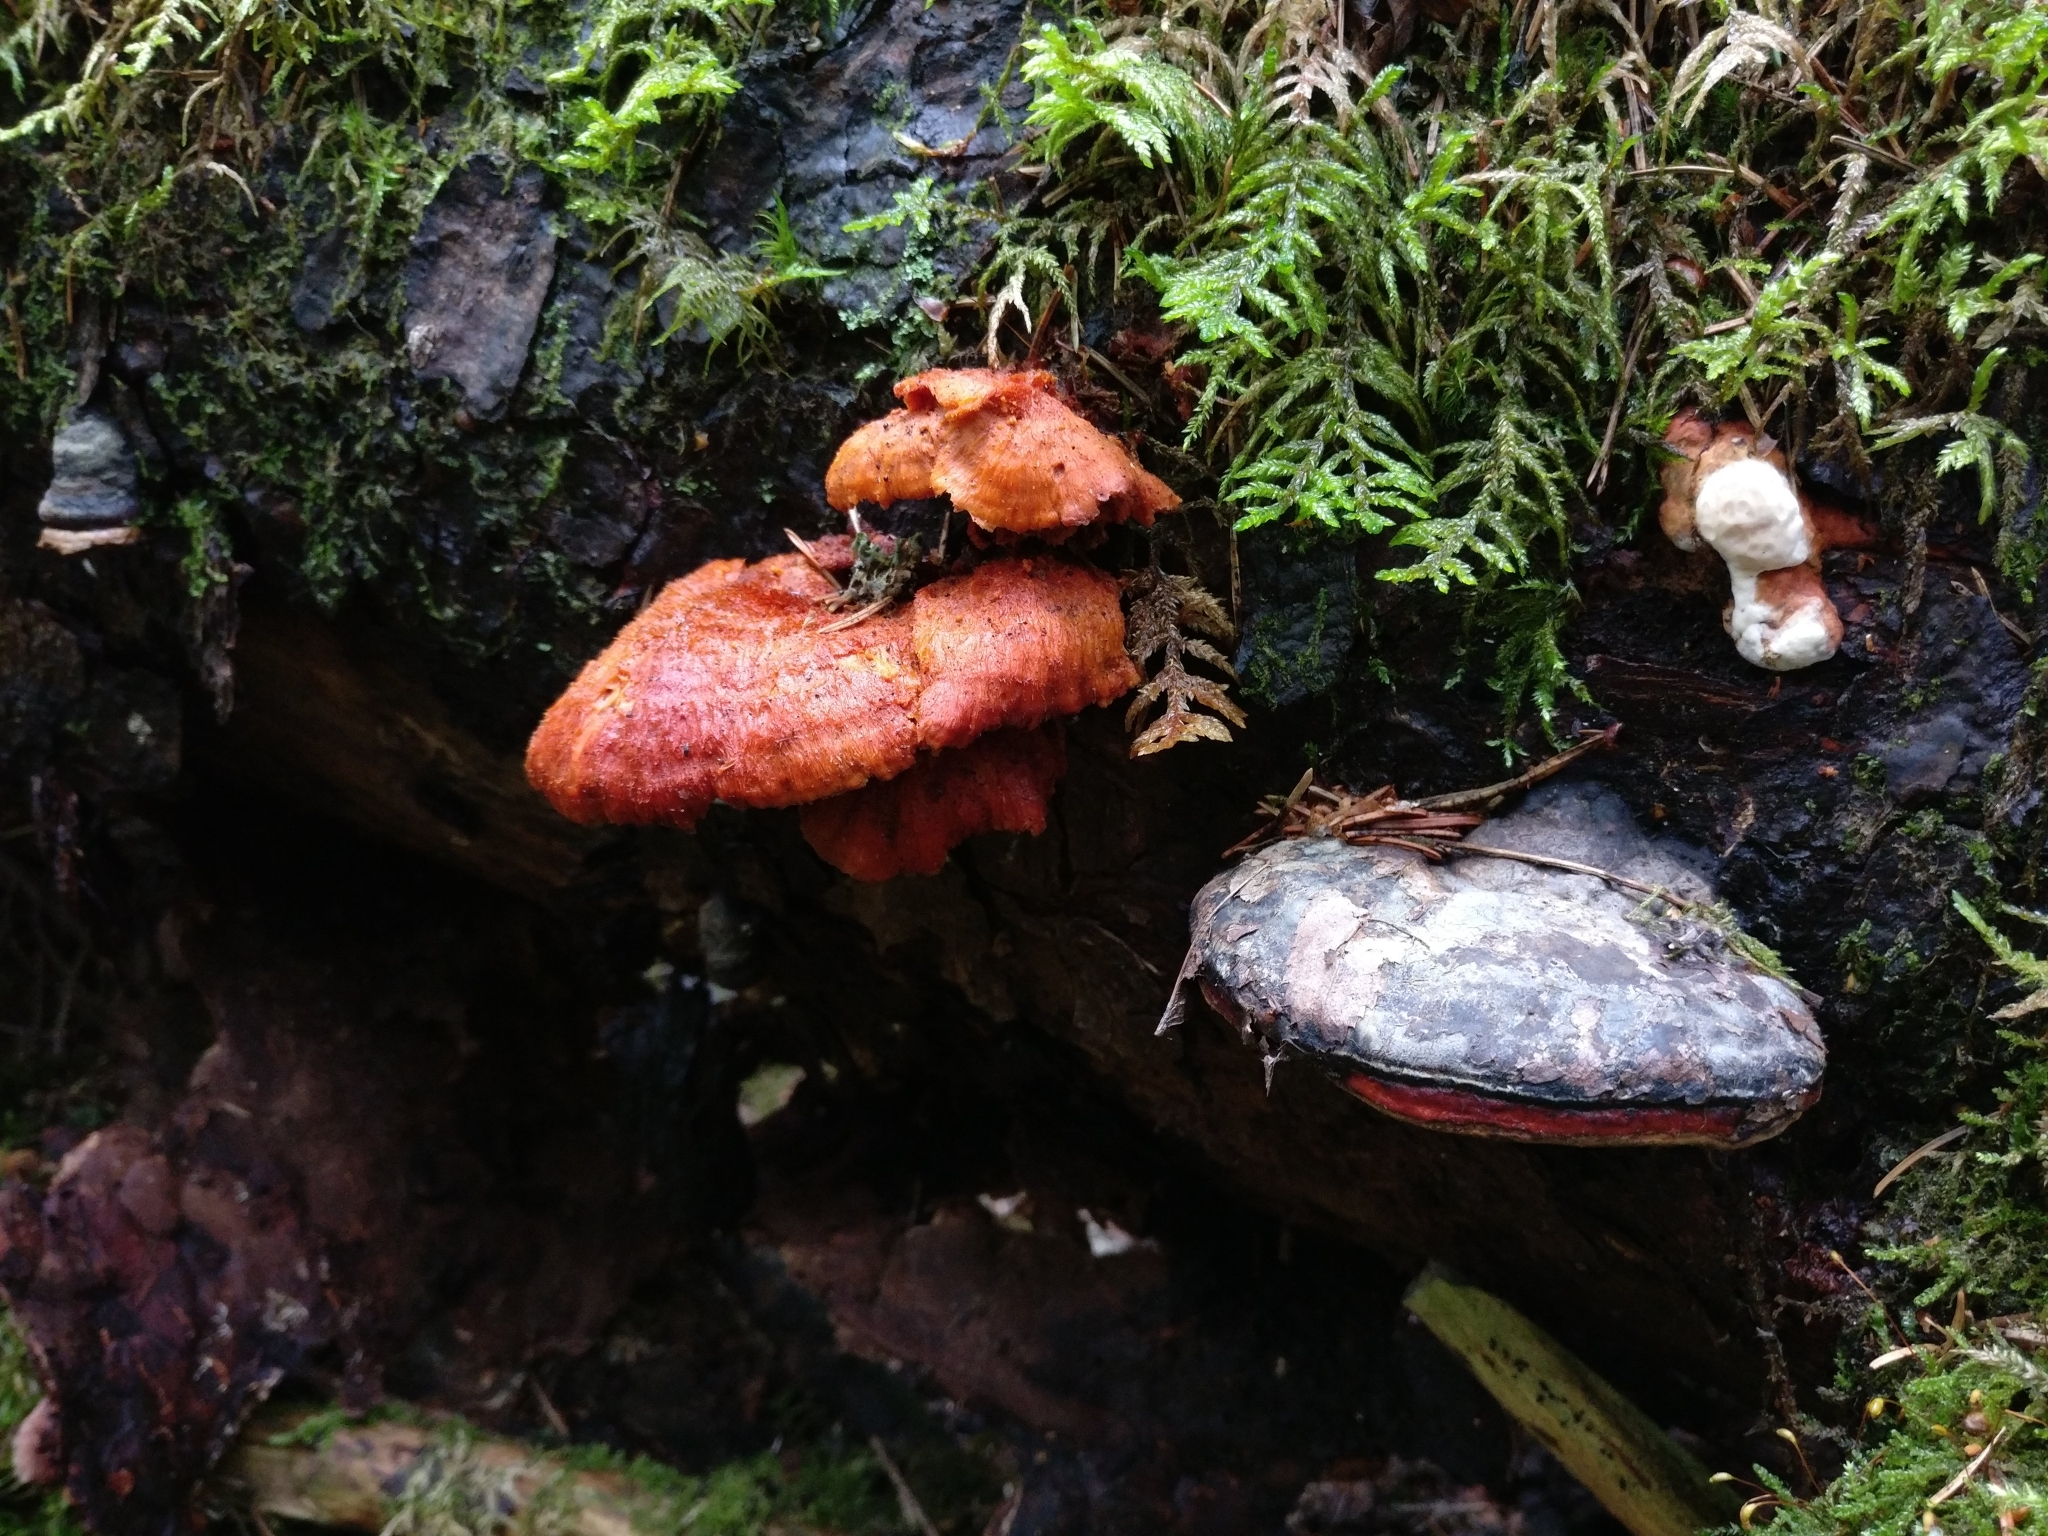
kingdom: Fungi
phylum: Basidiomycota
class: Agaricomycetes
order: Polyporales
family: Pycnoporellaceae
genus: Pycnoporellus
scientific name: Pycnoporellus fulgens
